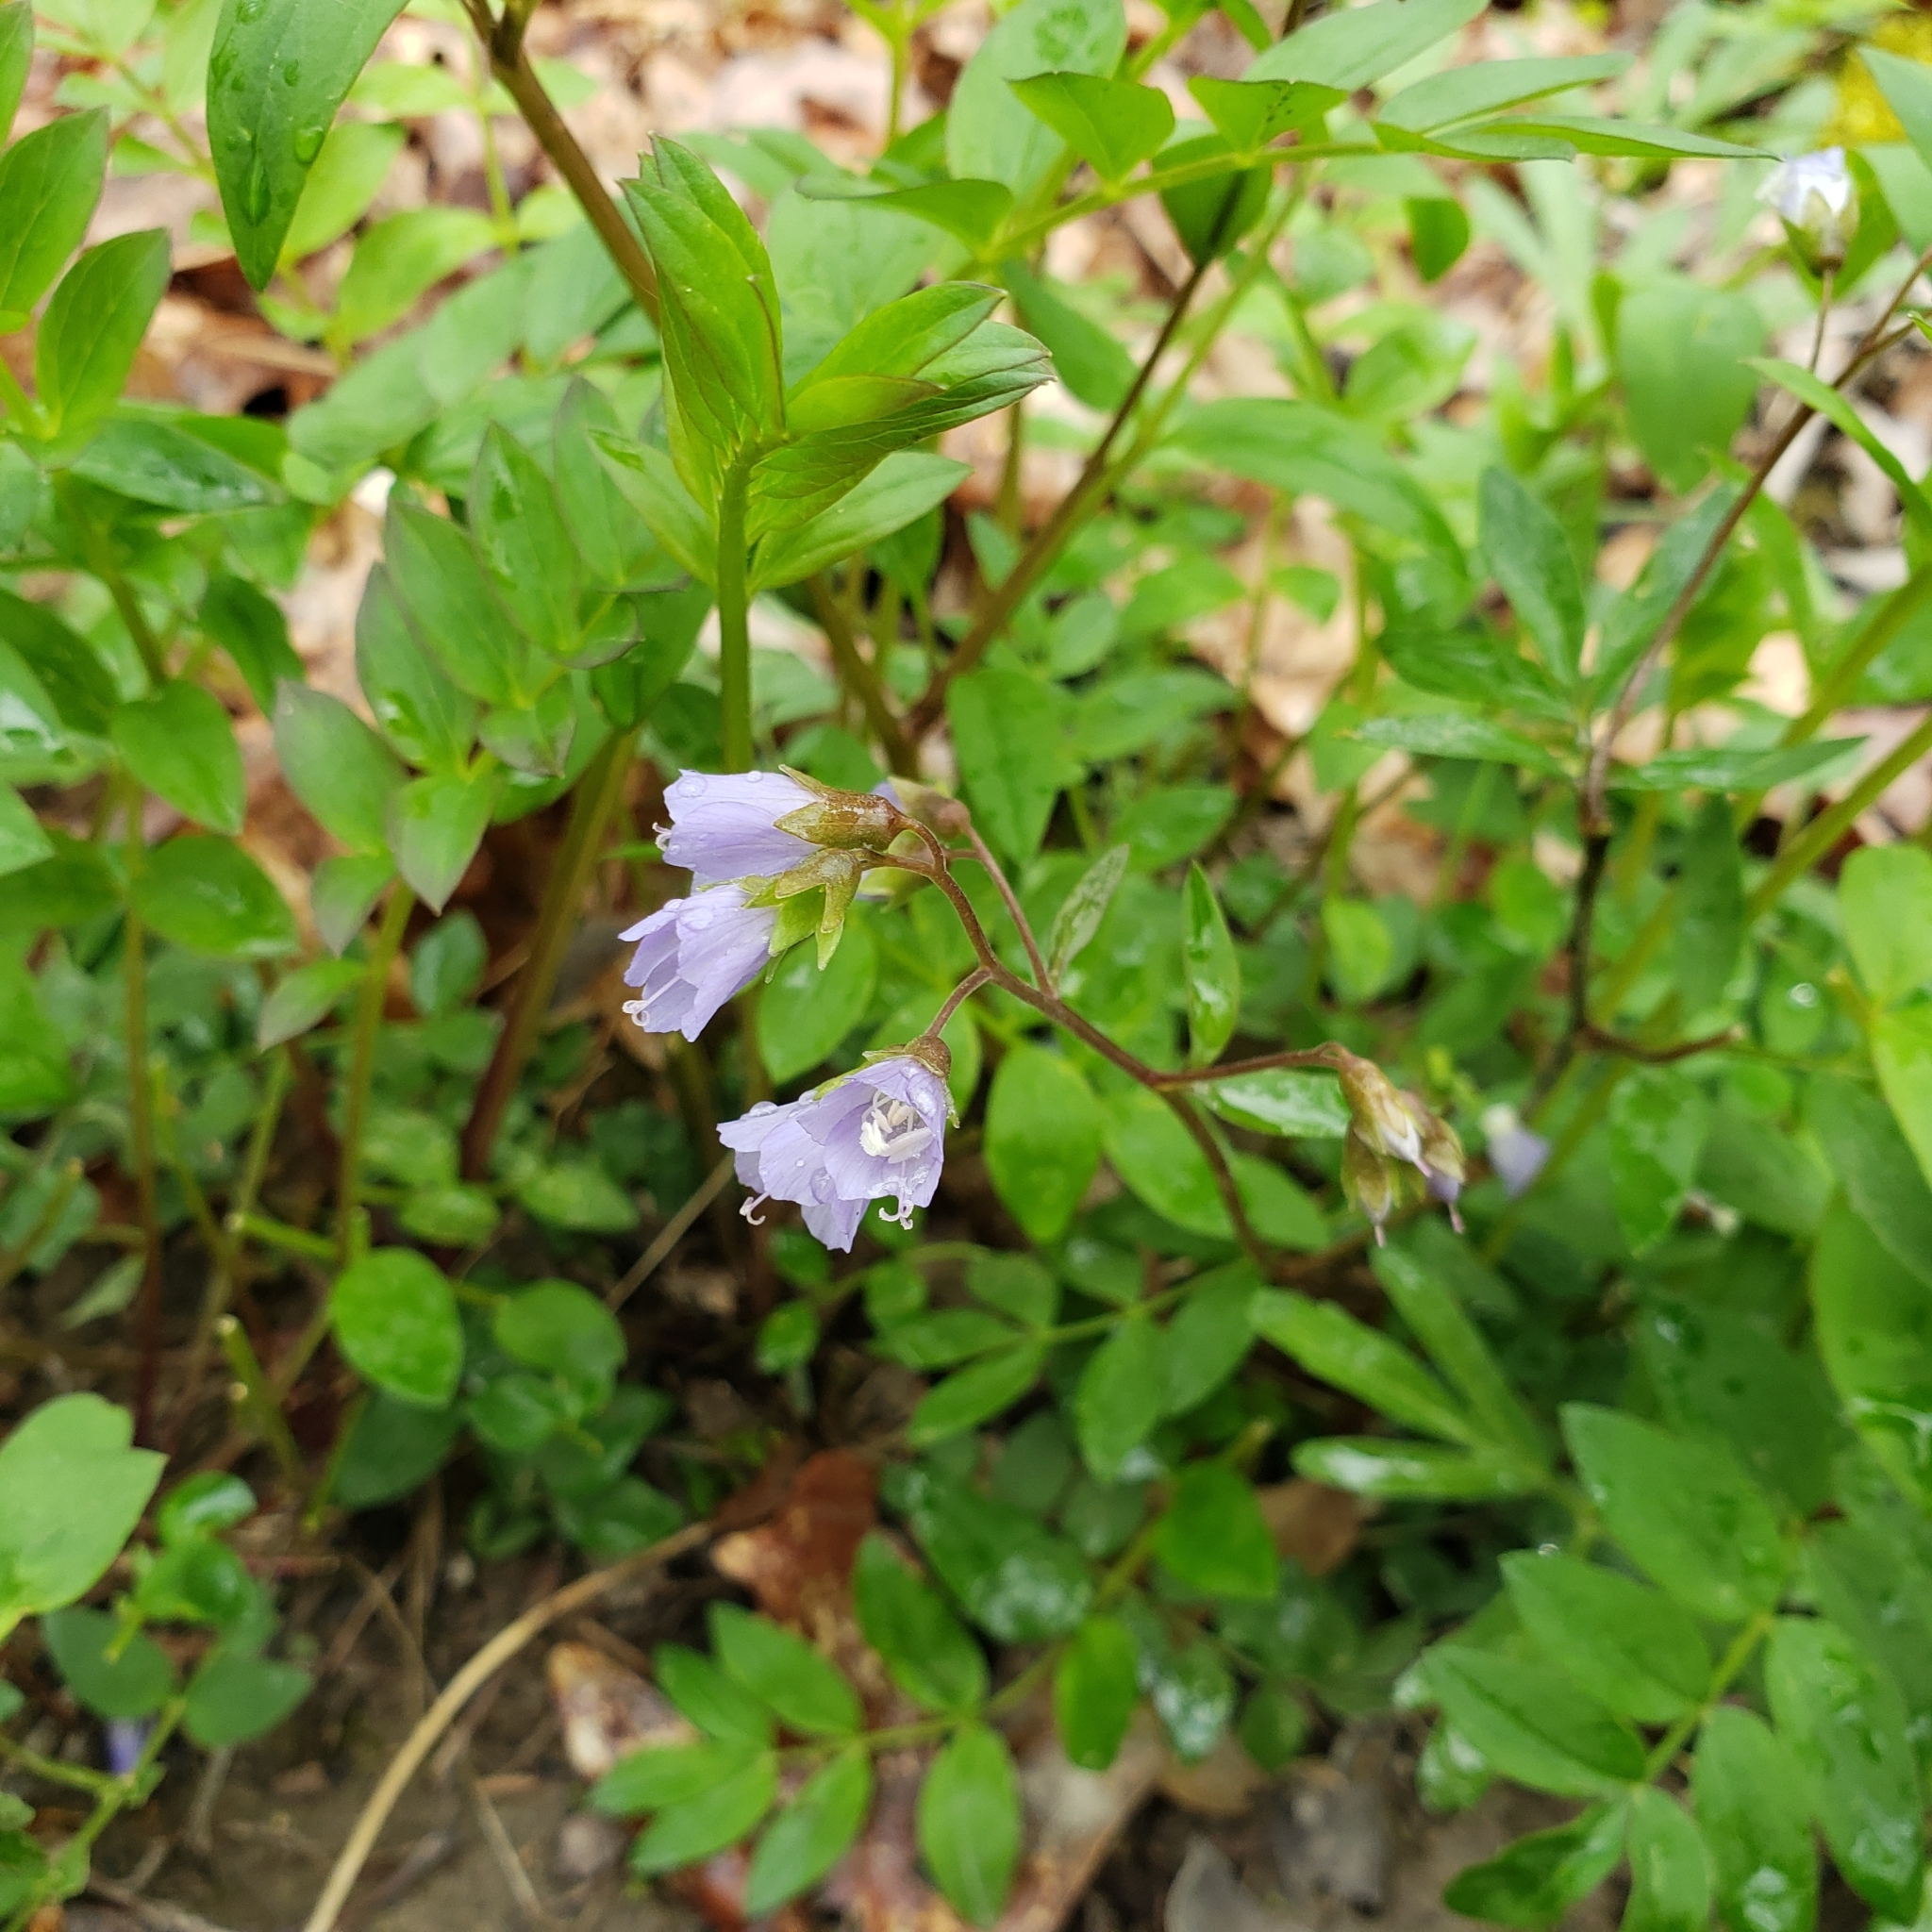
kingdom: Plantae
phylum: Tracheophyta
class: Magnoliopsida
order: Ericales
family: Polemoniaceae
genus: Polemonium
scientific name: Polemonium reptans
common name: Creeping jacob's-ladder
